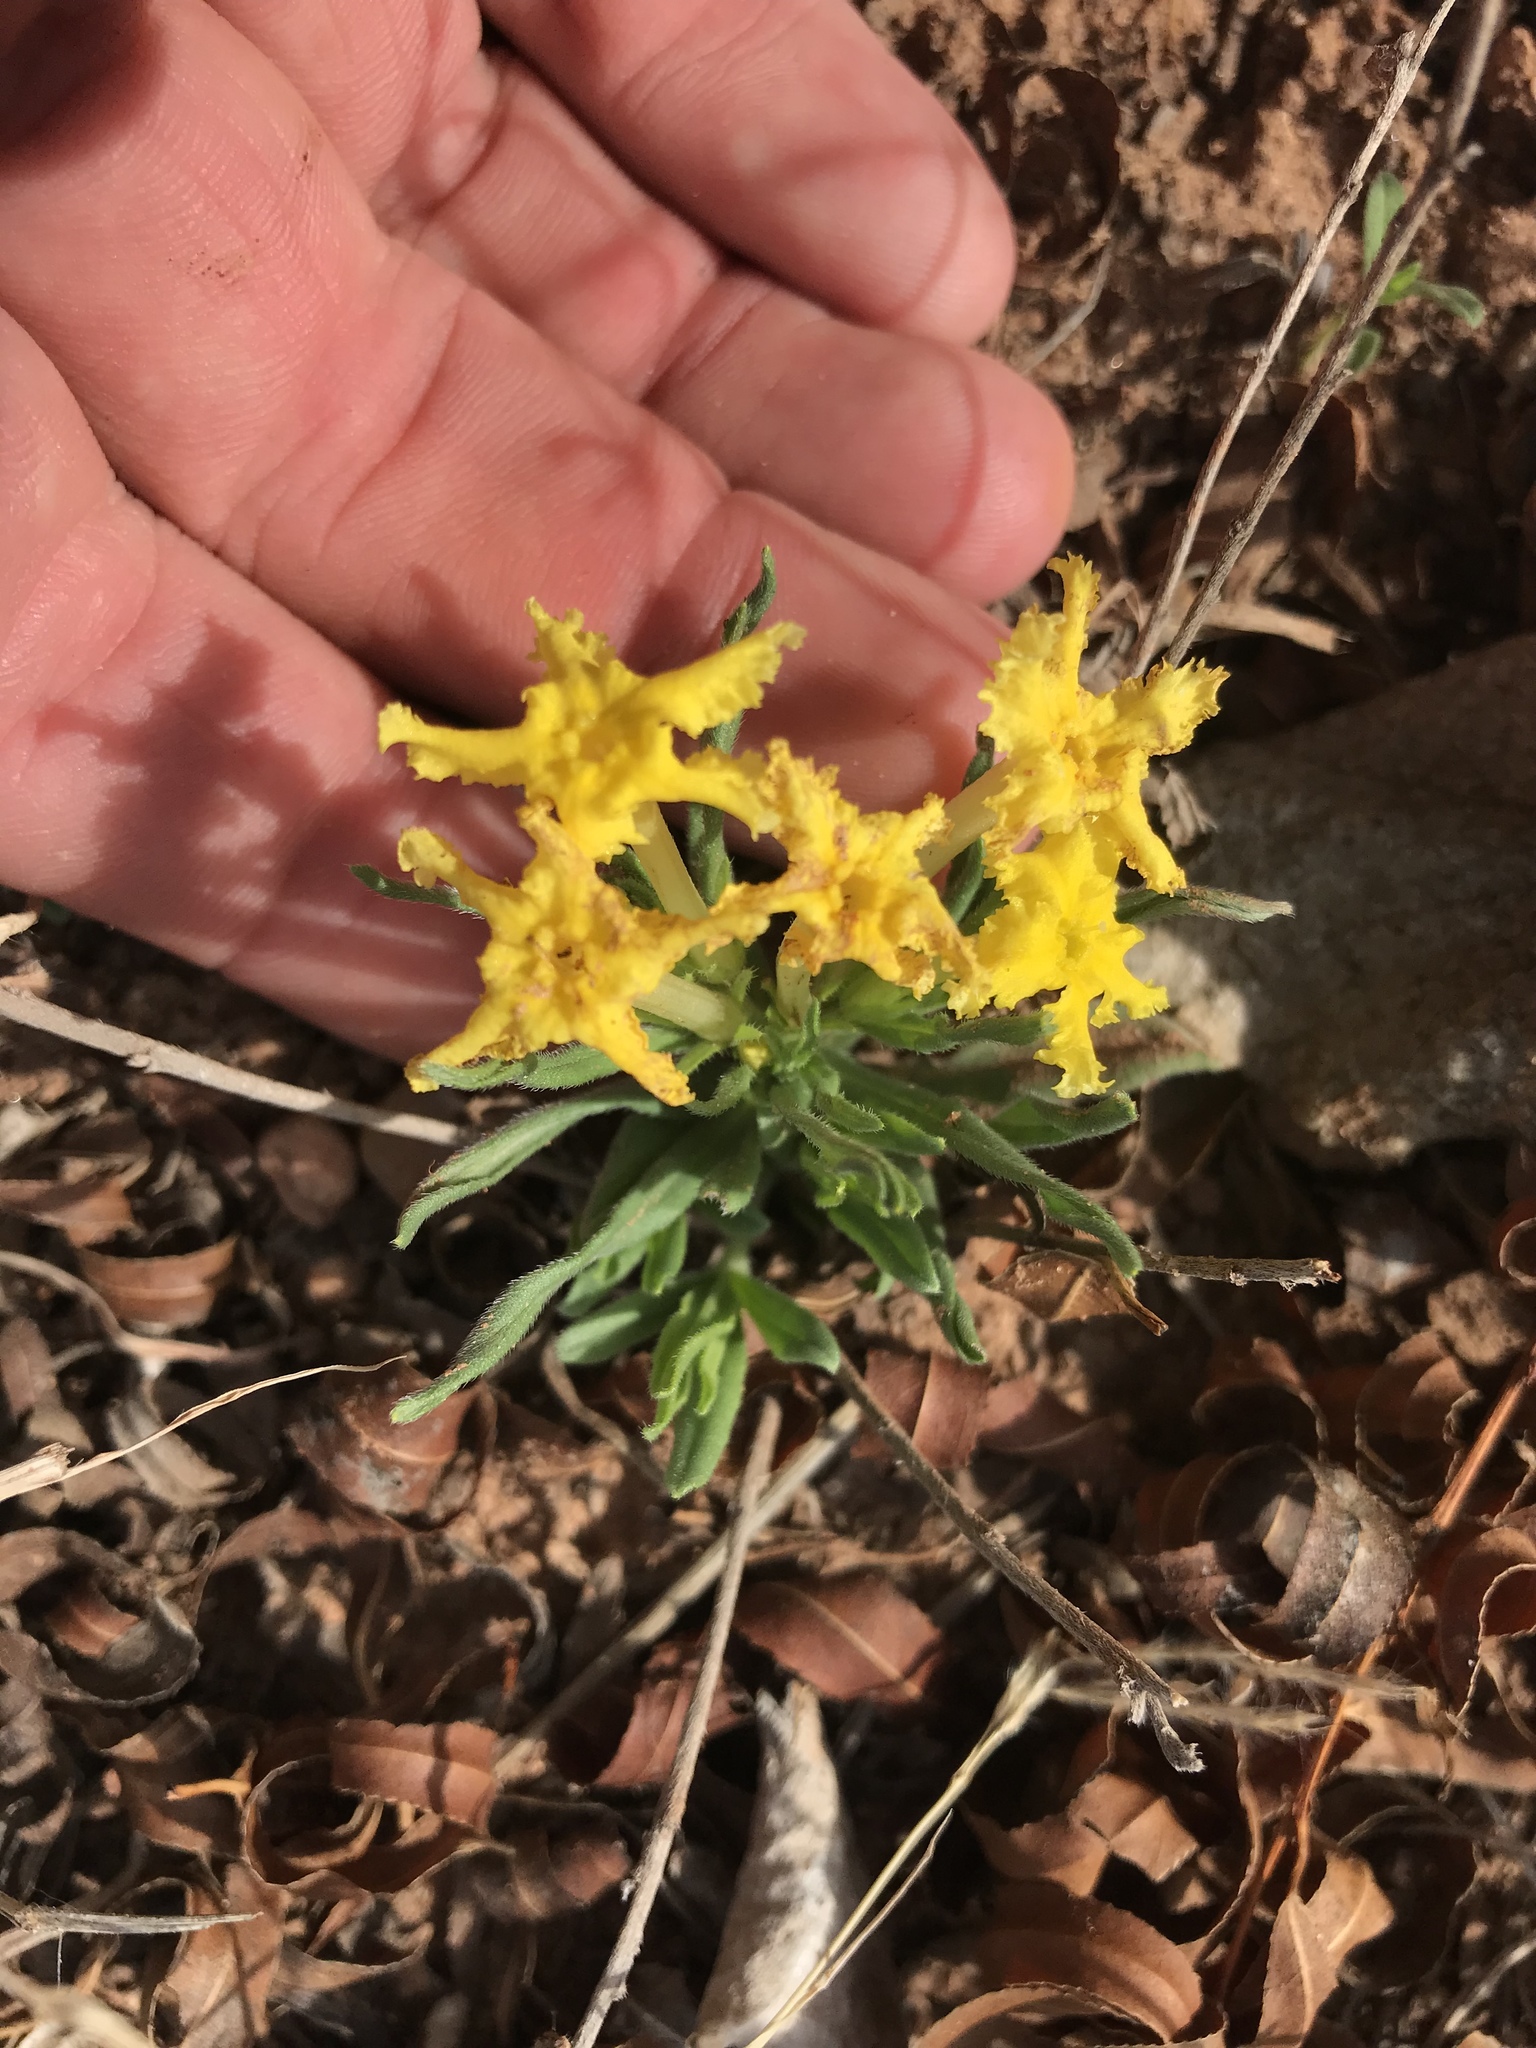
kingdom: Plantae
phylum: Tracheophyta
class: Magnoliopsida
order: Boraginales
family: Boraginaceae
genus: Lithospermum
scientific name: Lithospermum incisum
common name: Fringed gromwell
